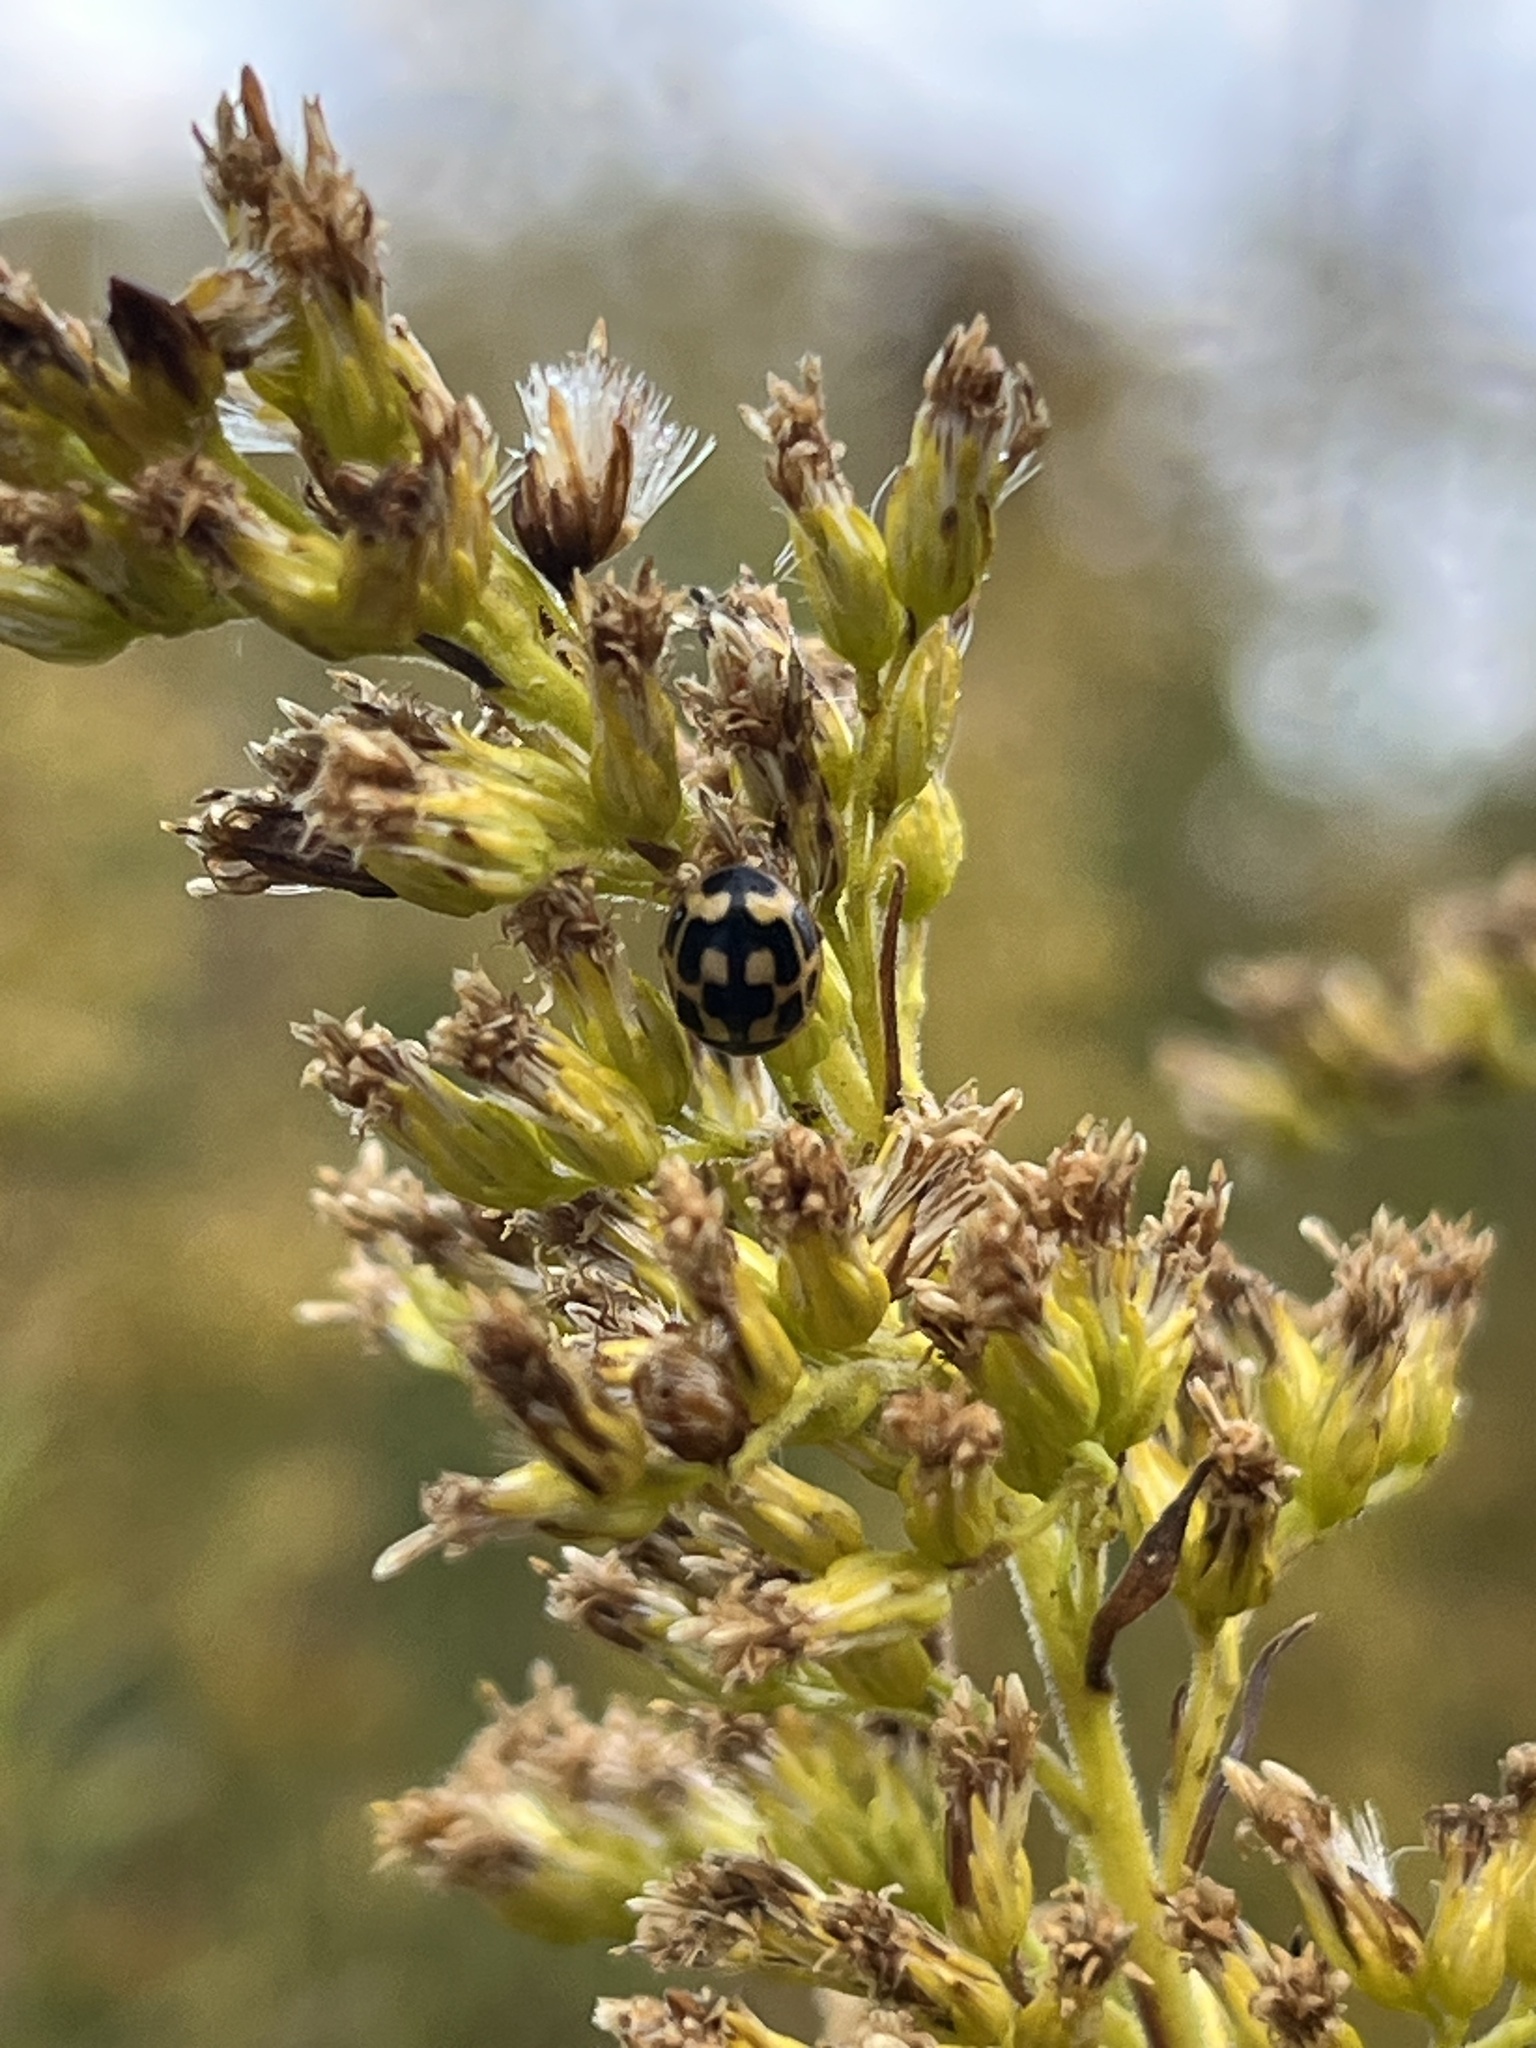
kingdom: Animalia
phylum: Arthropoda
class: Insecta
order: Coleoptera
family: Coccinellidae
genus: Propylaea
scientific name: Propylaea quatuordecimpunctata
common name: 14-spotted ladybird beetle
